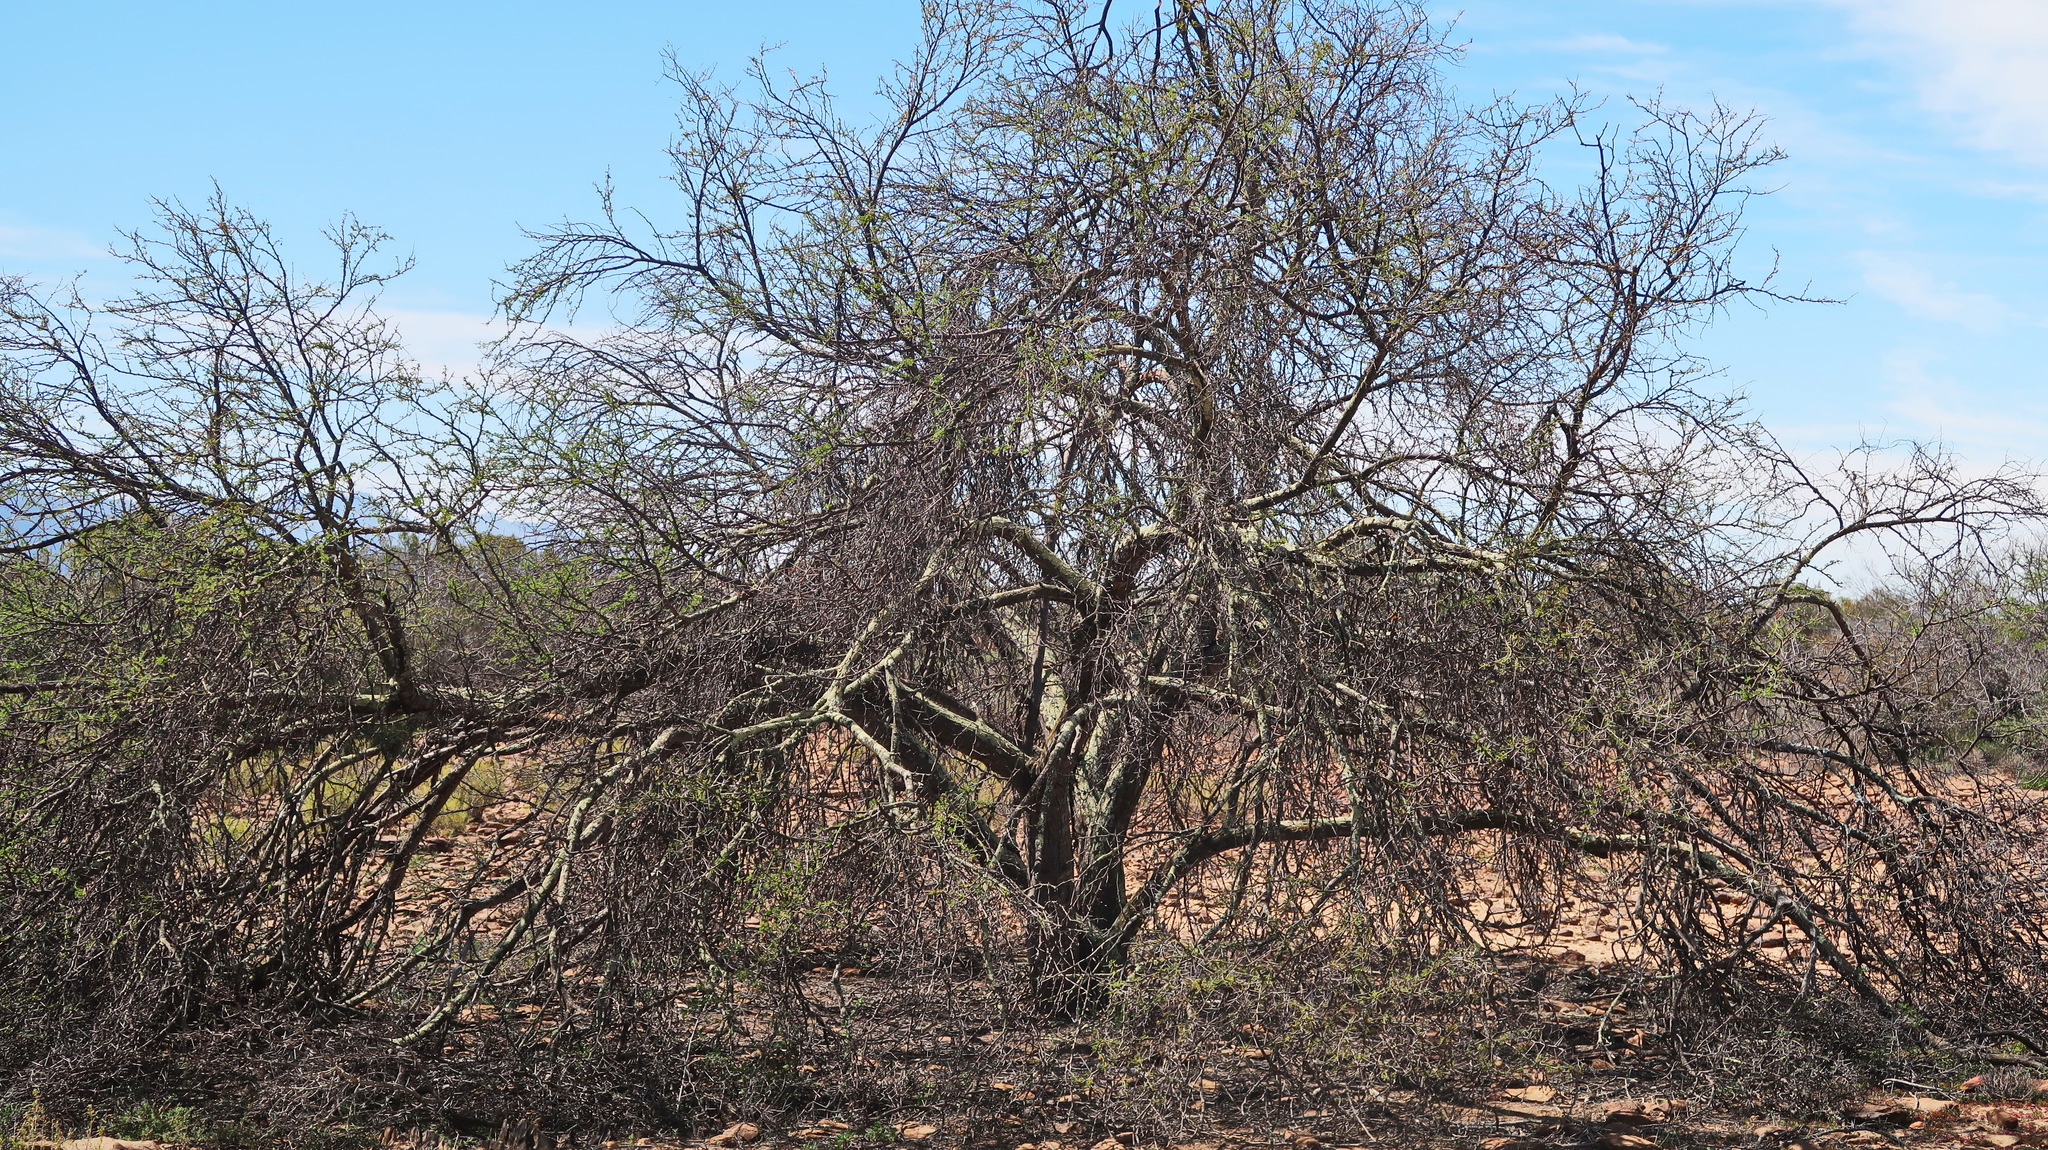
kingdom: Plantae
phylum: Tracheophyta
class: Magnoliopsida
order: Fabales
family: Fabaceae
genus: Vachellia
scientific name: Vachellia karroo
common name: Sweet thorn
